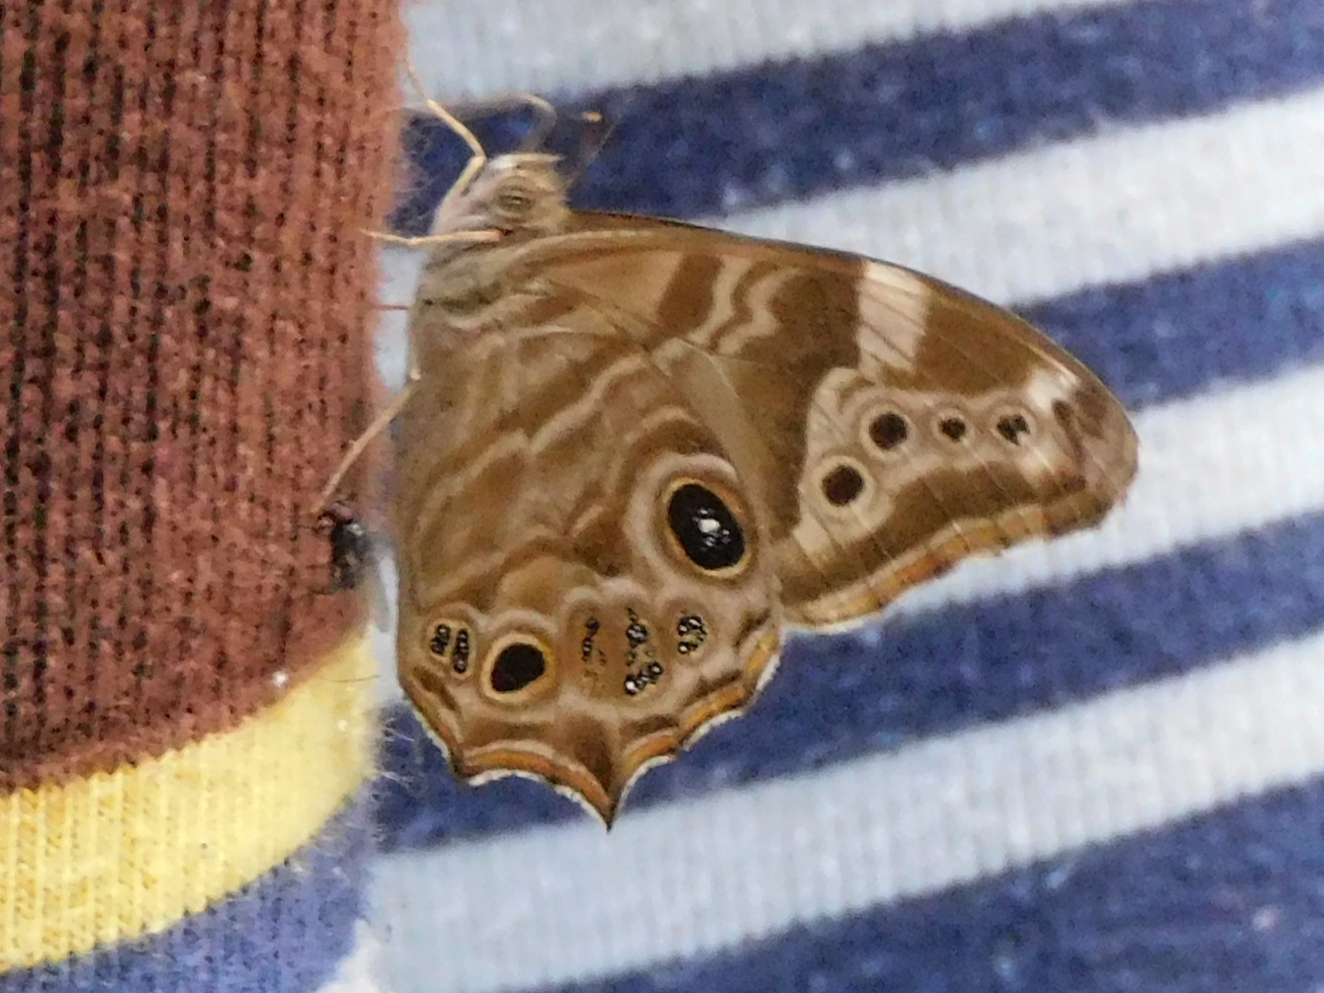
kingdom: Animalia
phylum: Arthropoda
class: Insecta
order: Lepidoptera
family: Nymphalidae
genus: Lethe
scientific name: Lethe rohria
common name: Common treebrown
